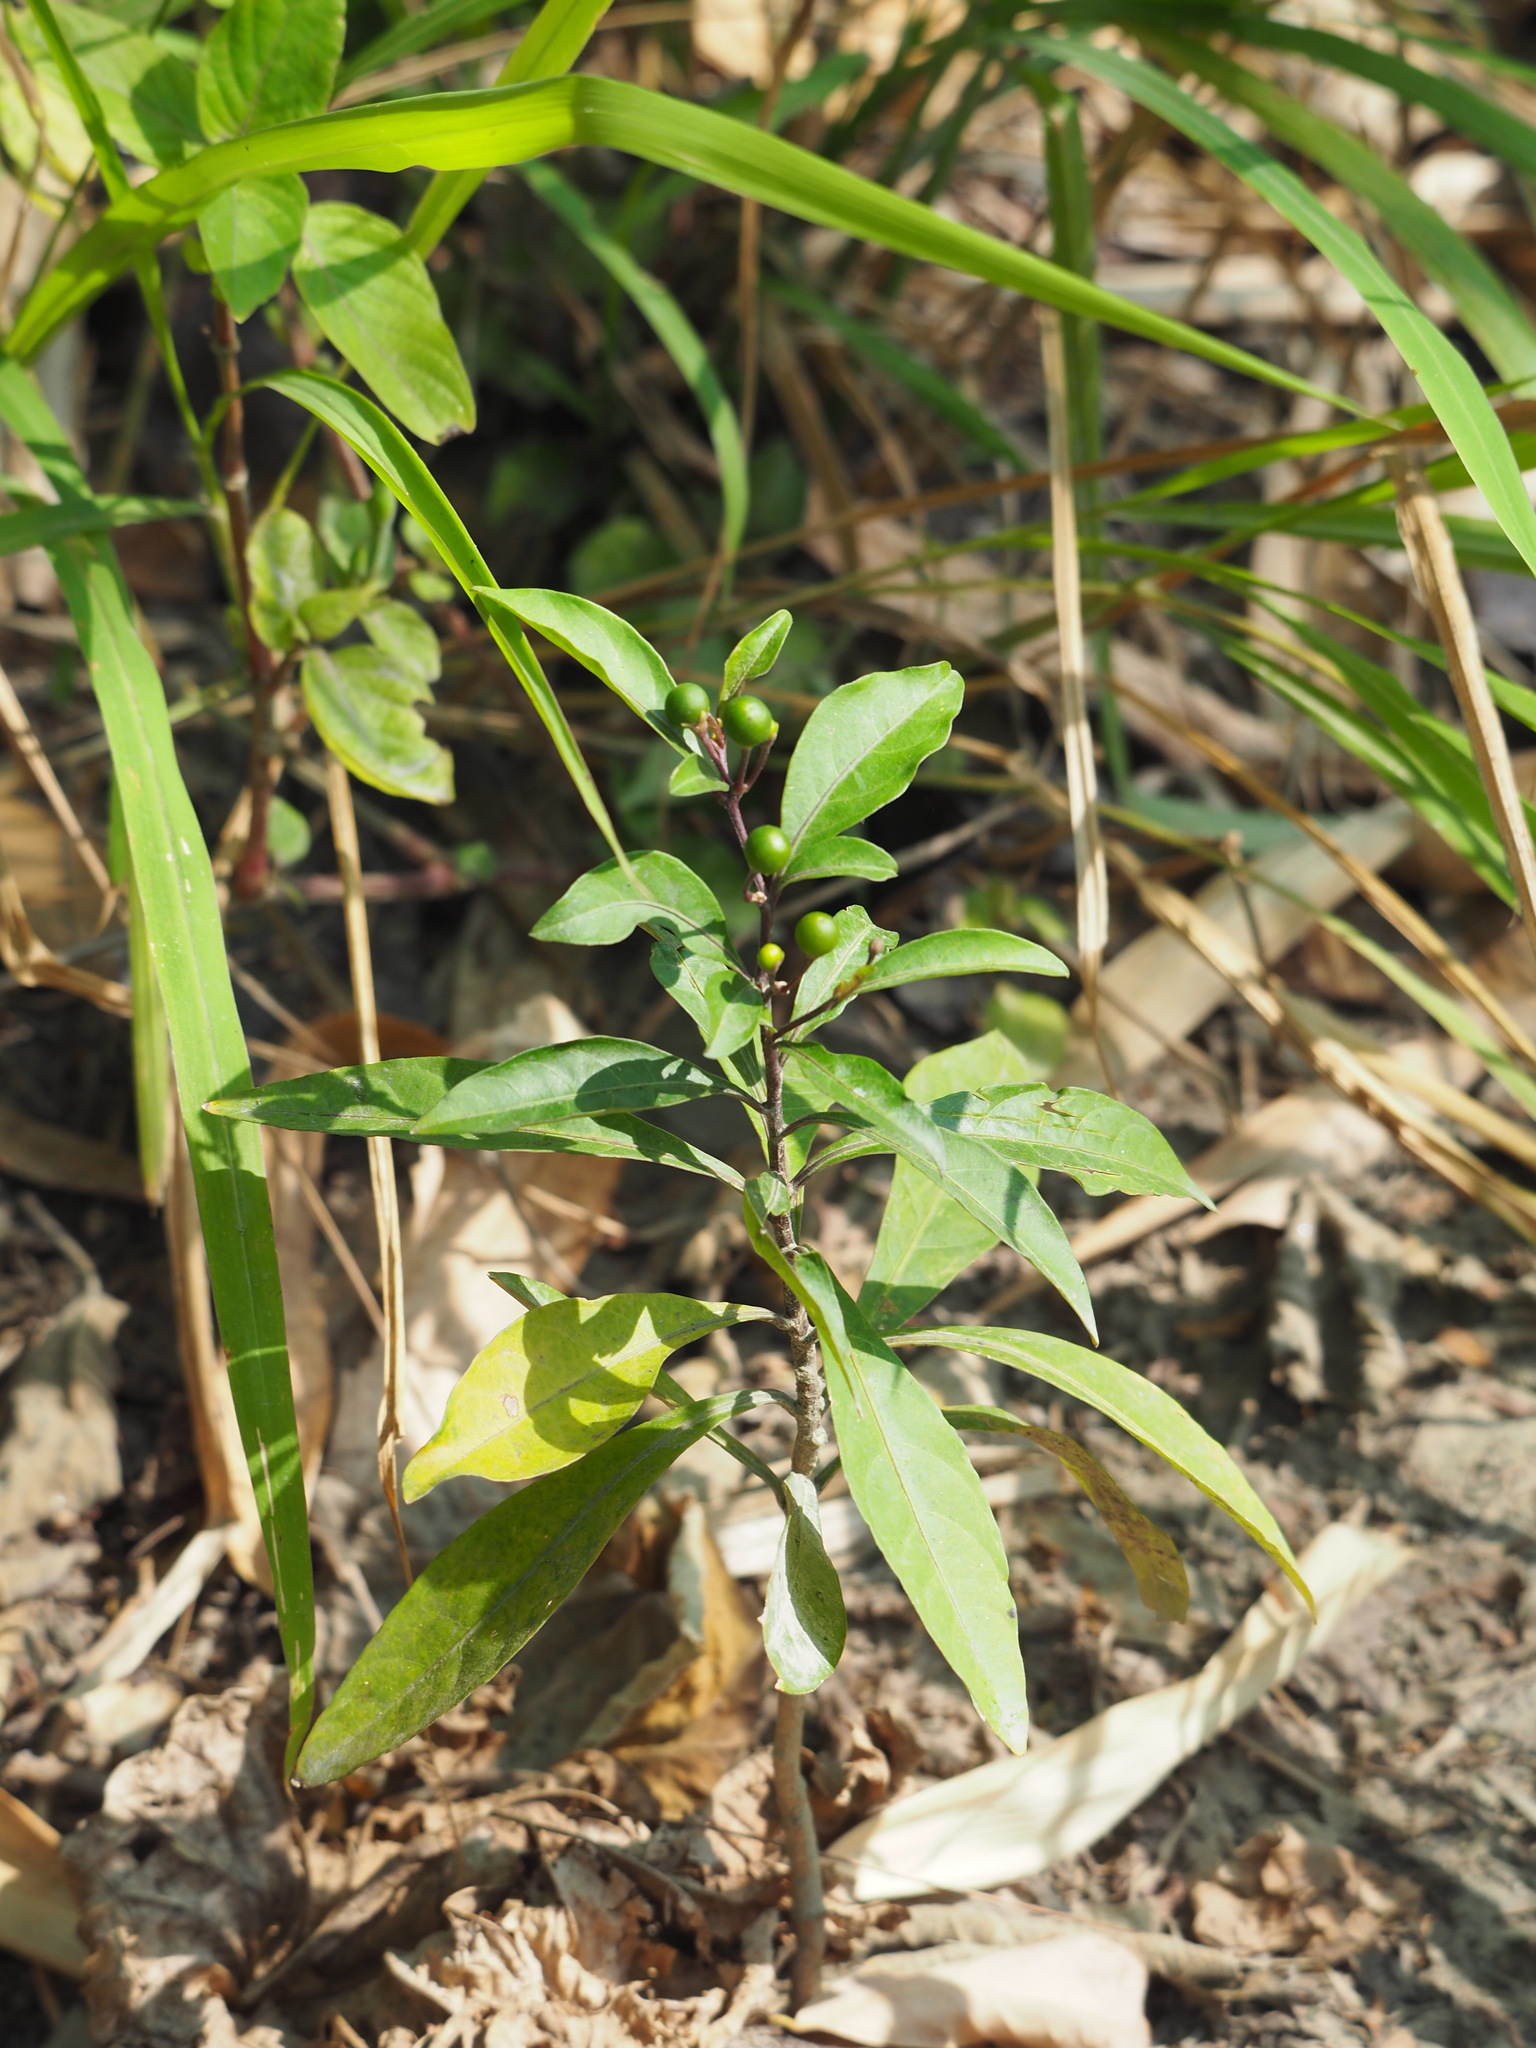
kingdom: Plantae
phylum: Tracheophyta
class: Magnoliopsida
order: Solanales
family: Solanaceae
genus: Solanum
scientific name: Solanum diphyllum
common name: Twoleaf nightshade
